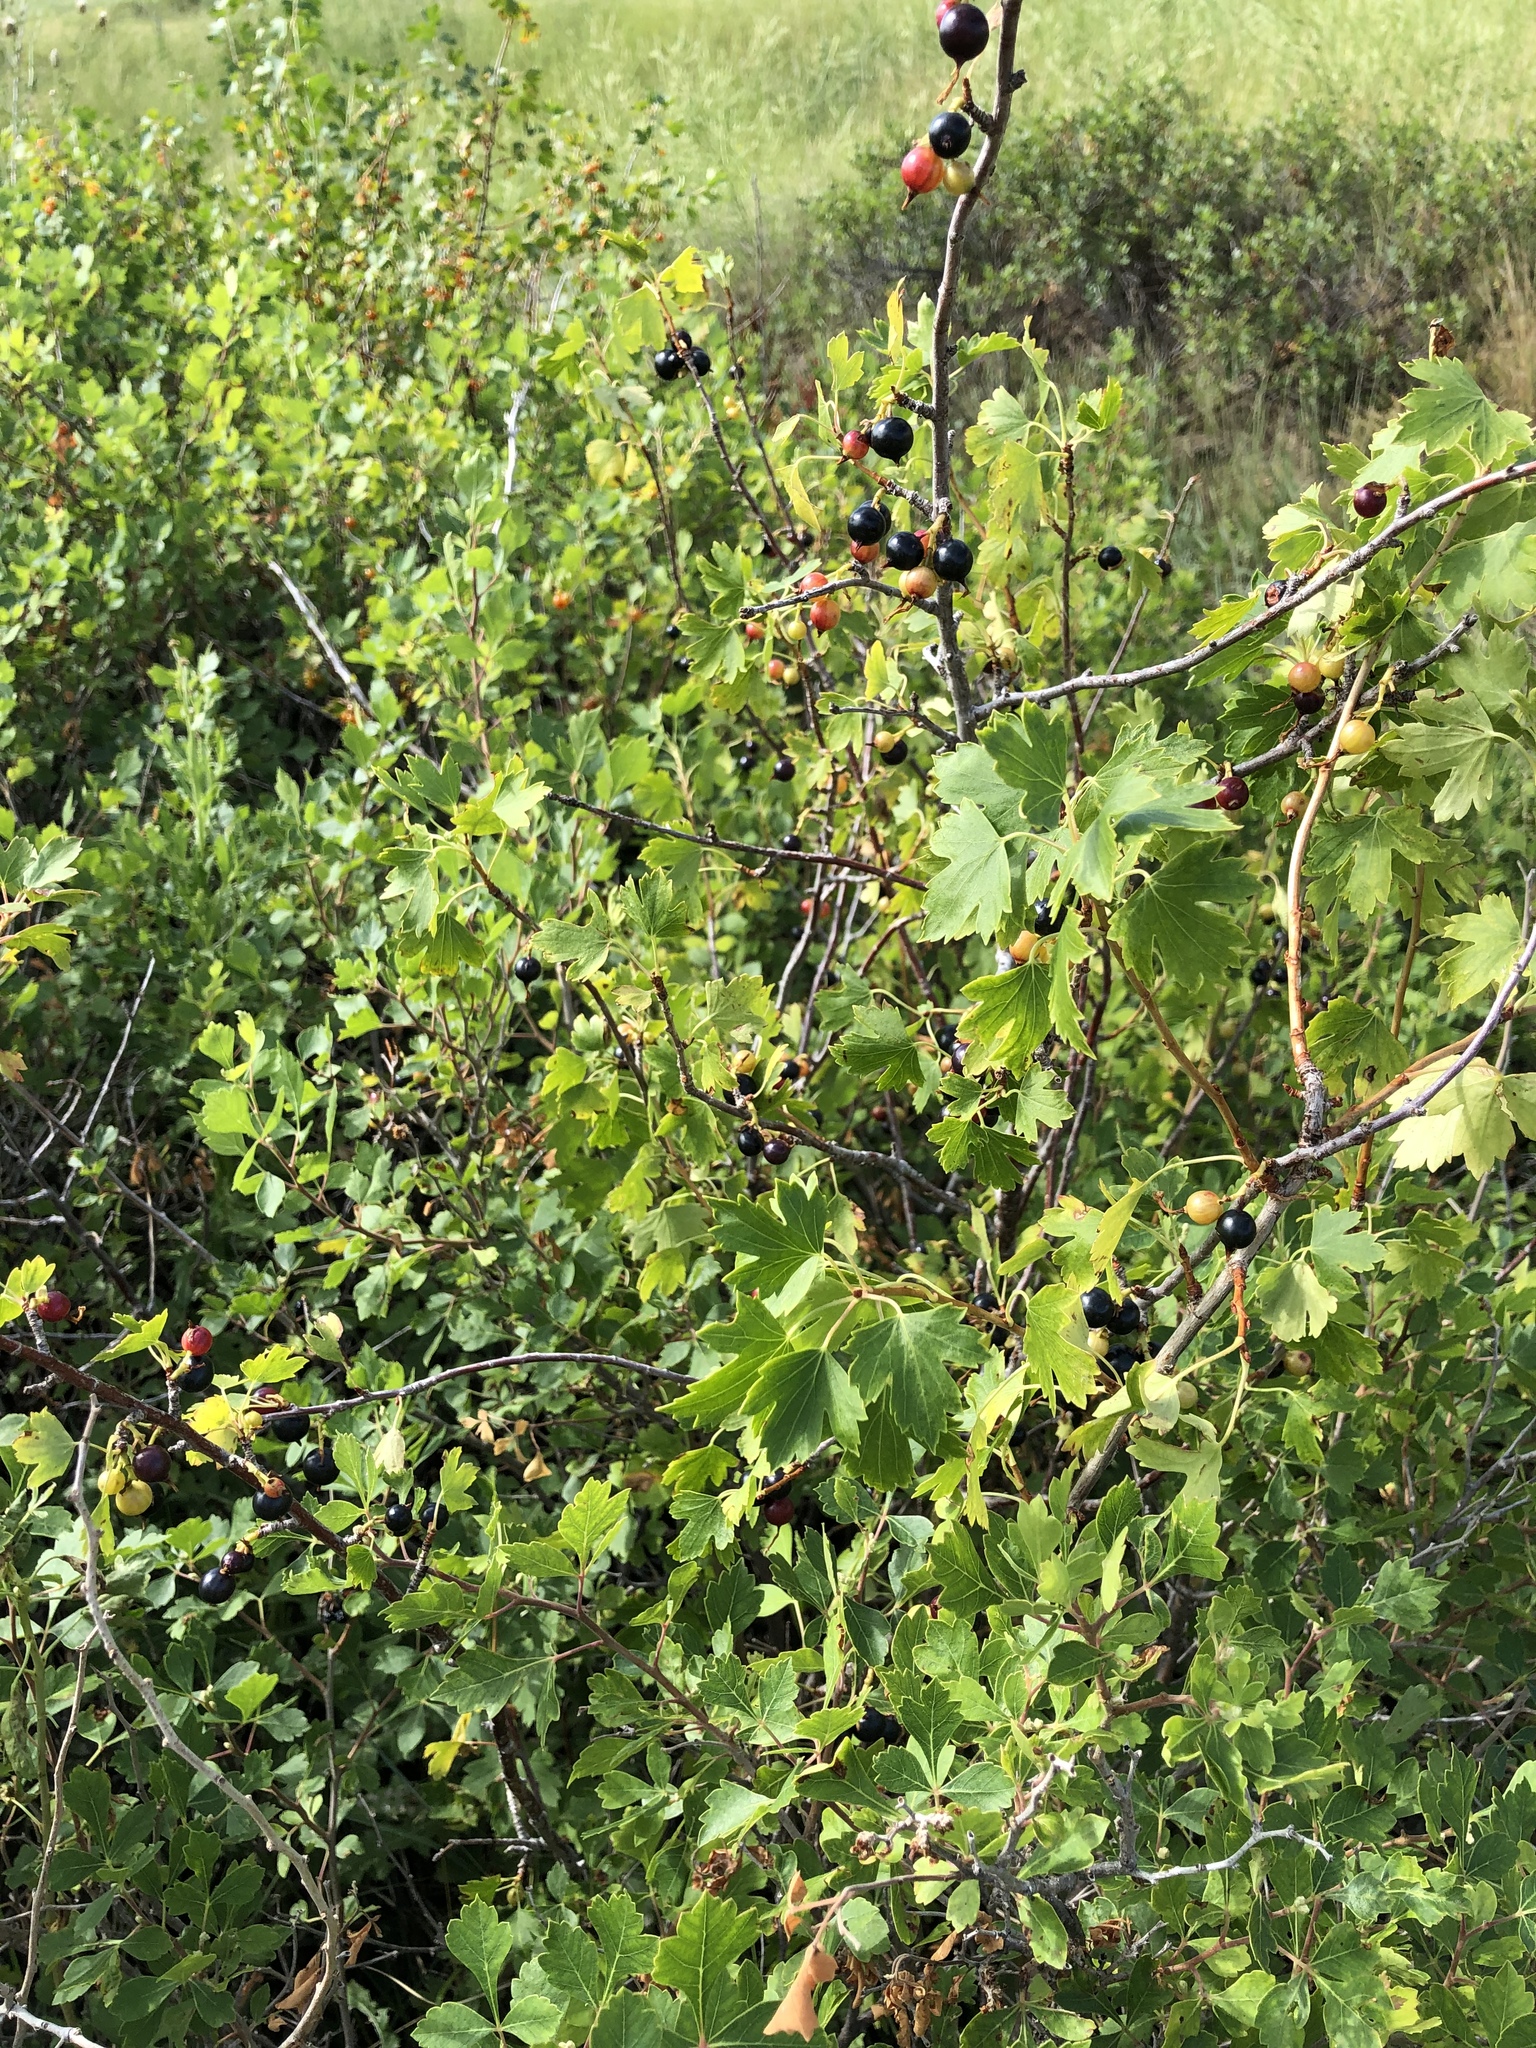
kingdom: Plantae
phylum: Tracheophyta
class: Magnoliopsida
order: Saxifragales
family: Grossulariaceae
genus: Ribes
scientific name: Ribes aureum
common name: Golden currant
